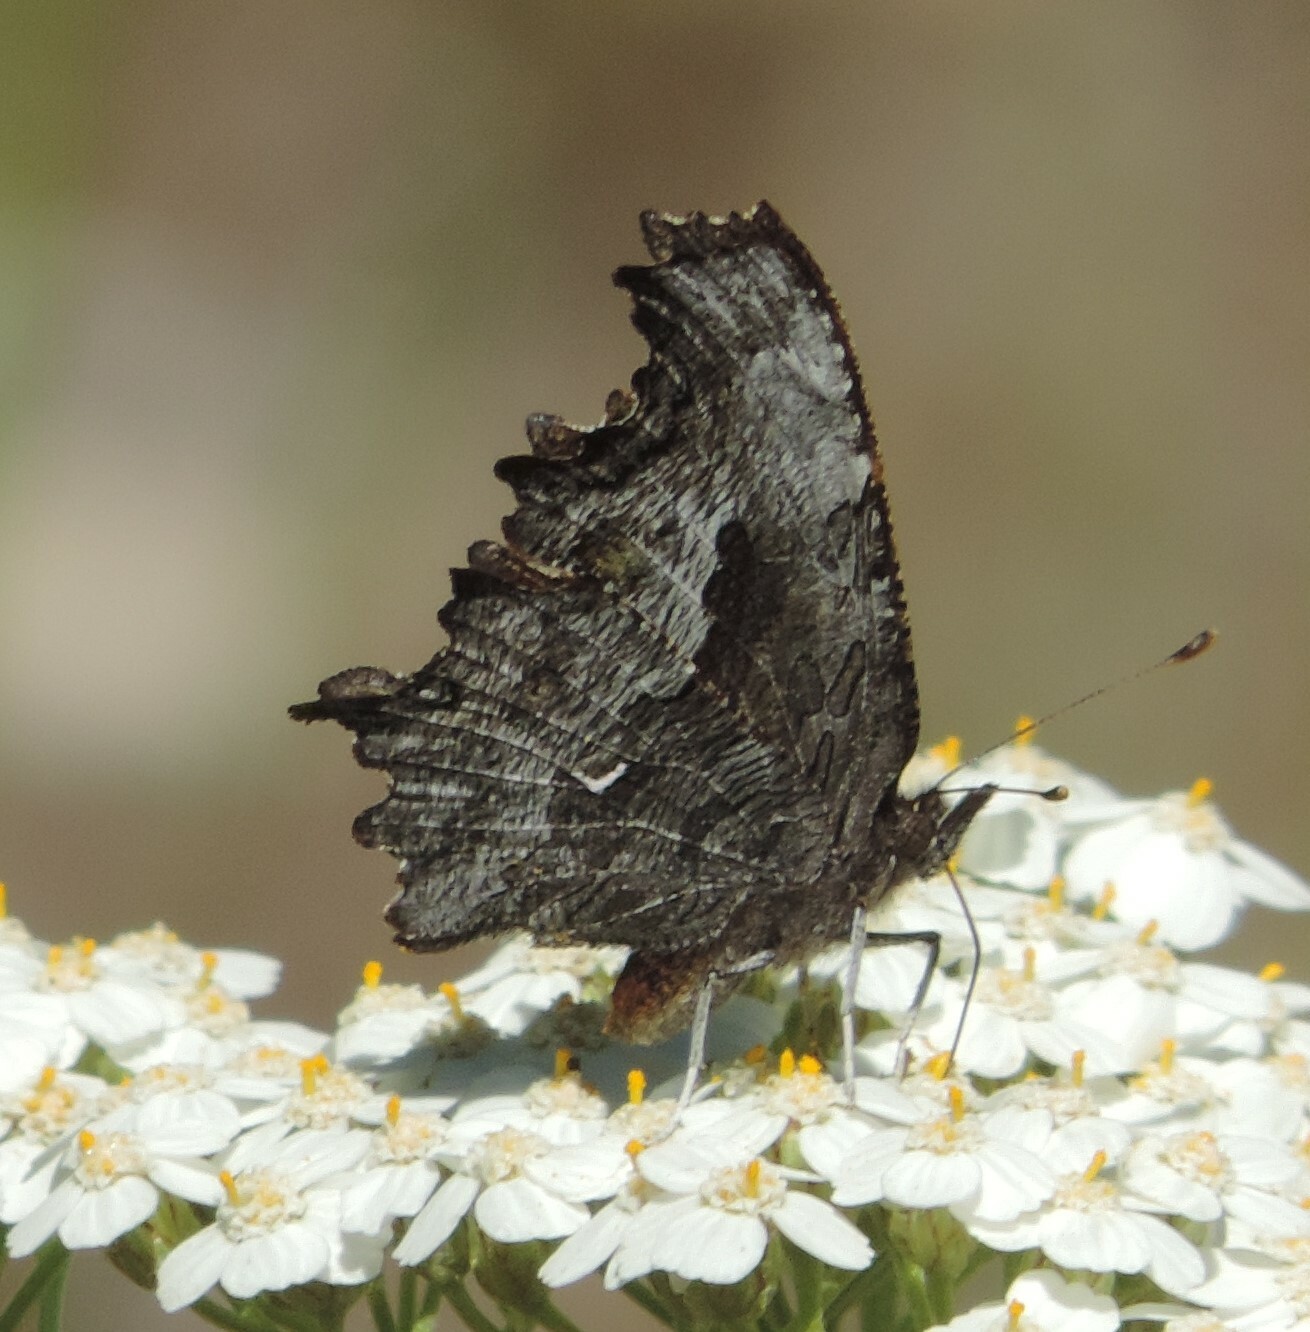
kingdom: Animalia
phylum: Arthropoda
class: Insecta
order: Lepidoptera
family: Nymphalidae
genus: Polygonia
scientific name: Polygonia gracilis
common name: Hoary comma
